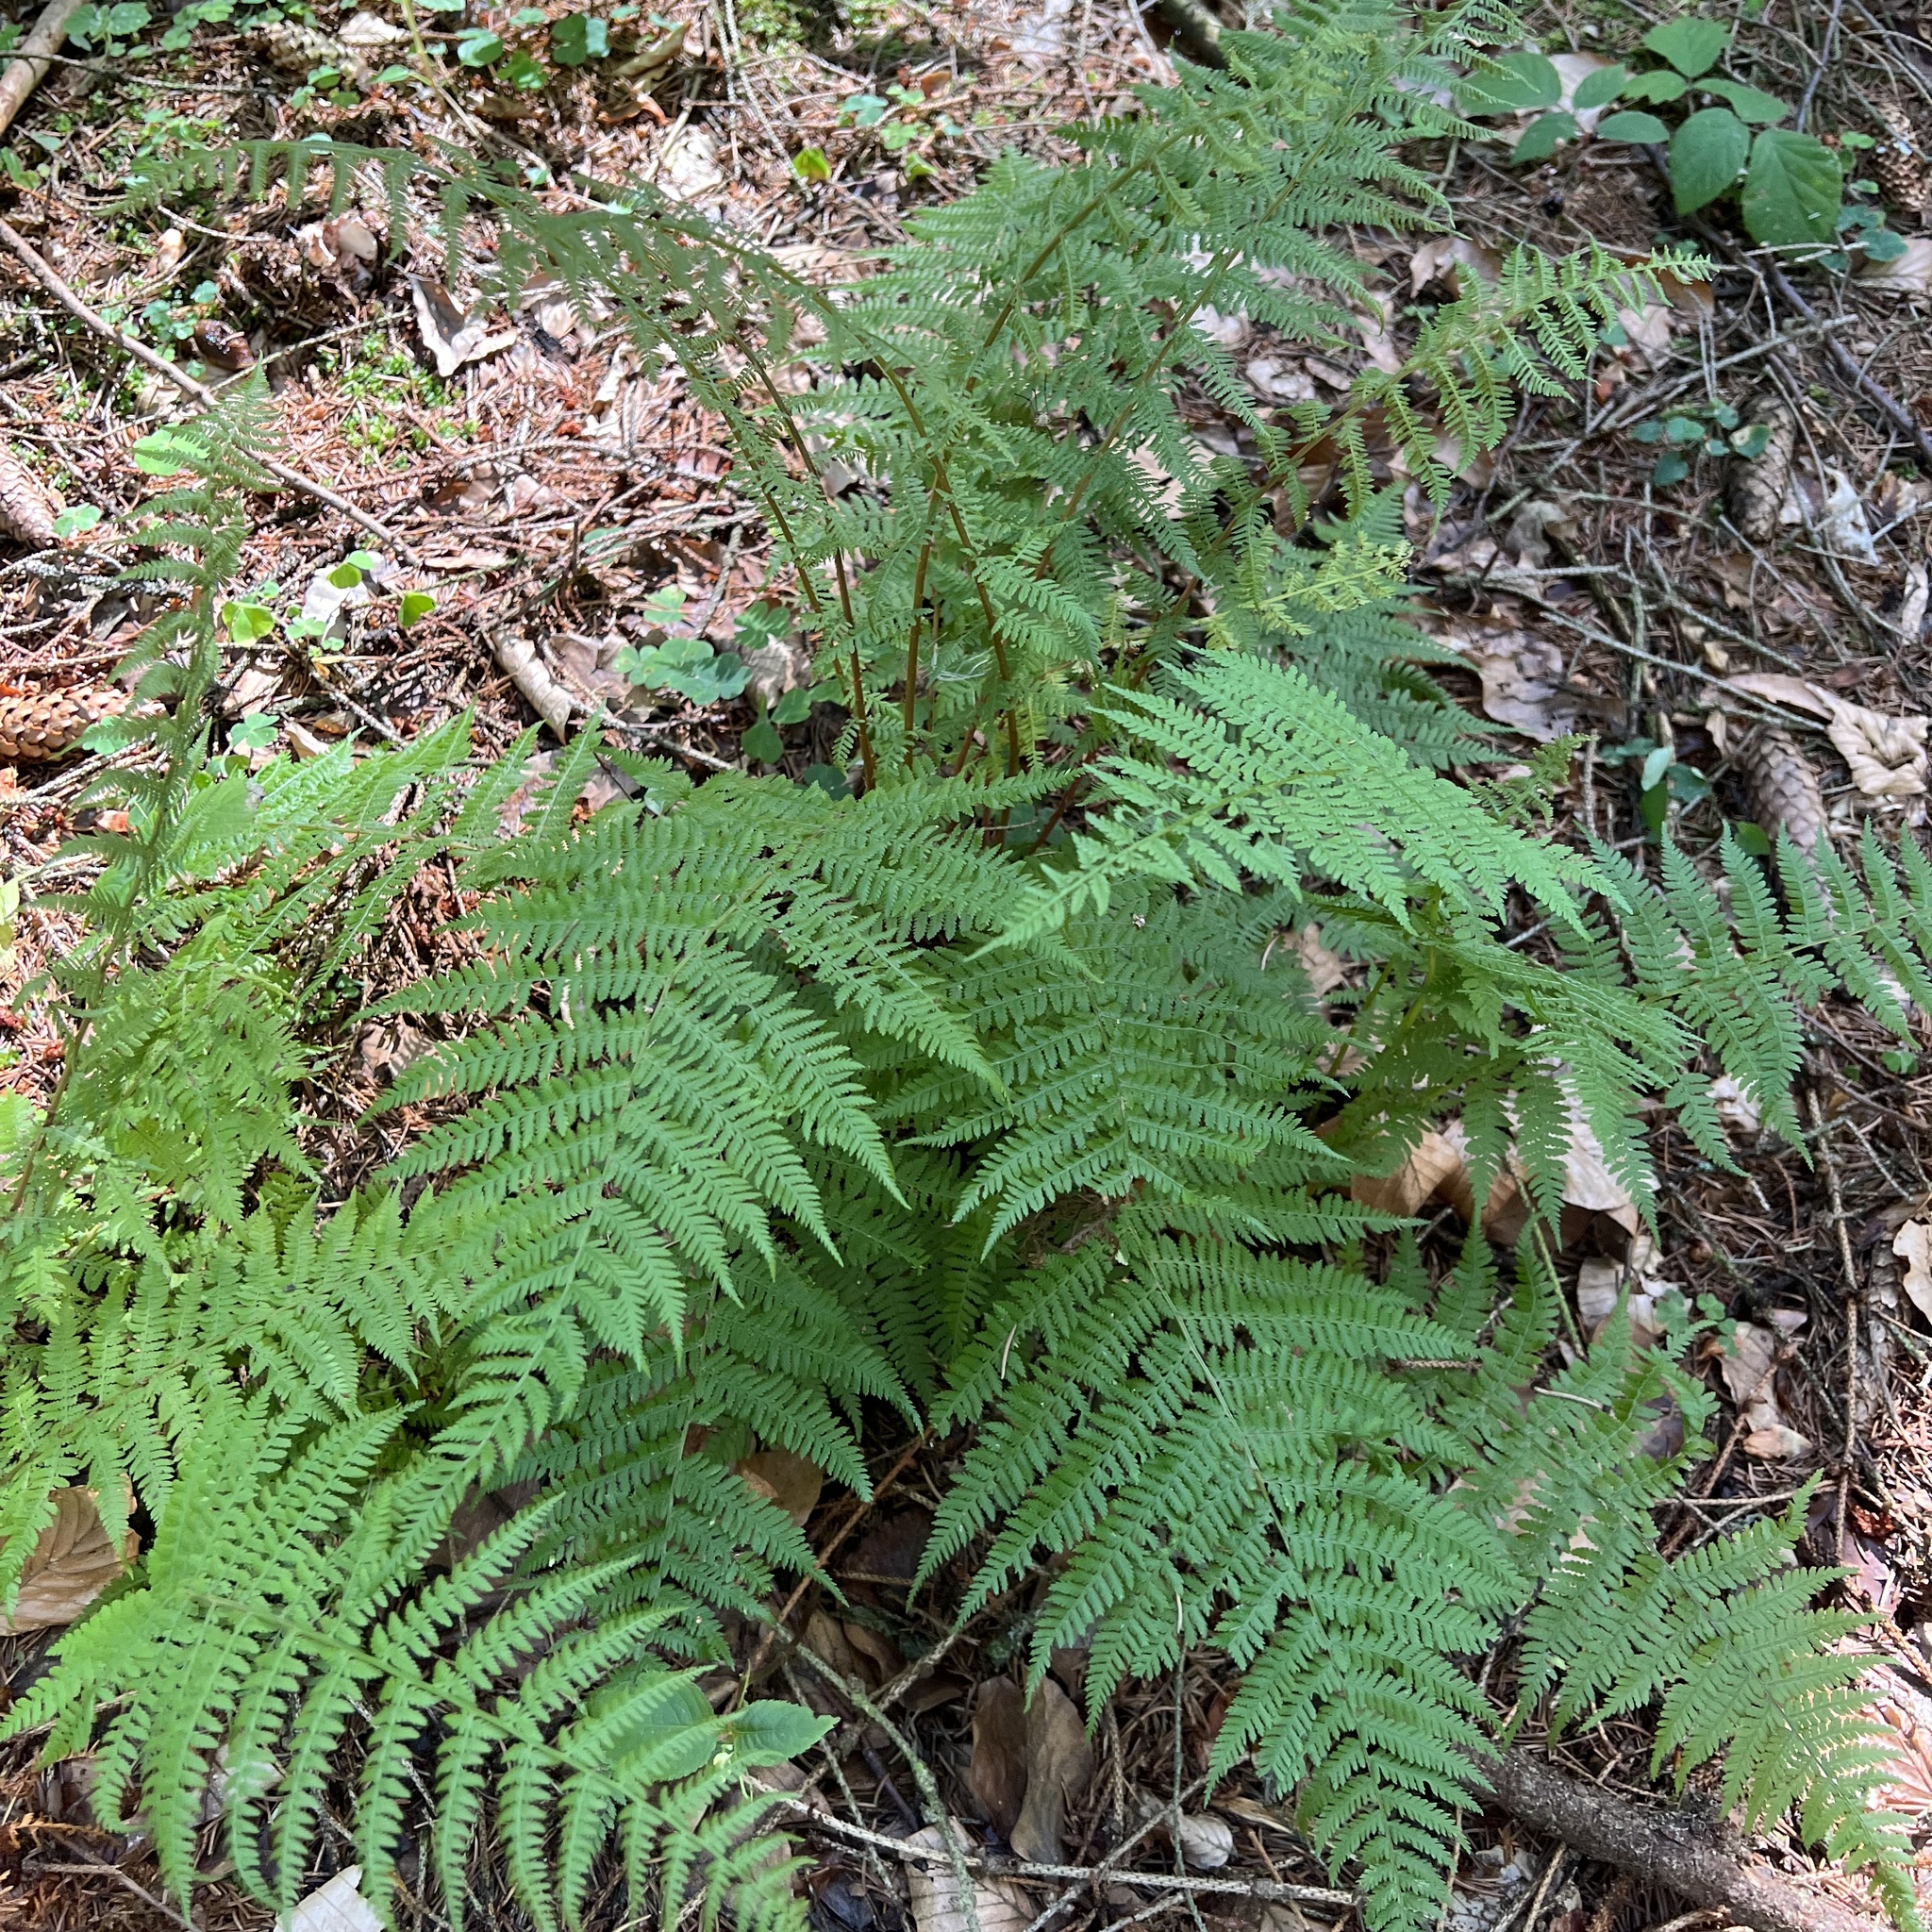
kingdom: Plantae
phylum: Tracheophyta
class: Polypodiopsida
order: Polypodiales
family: Athyriaceae
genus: Athyrium
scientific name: Athyrium filix-femina
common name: Lady fern
